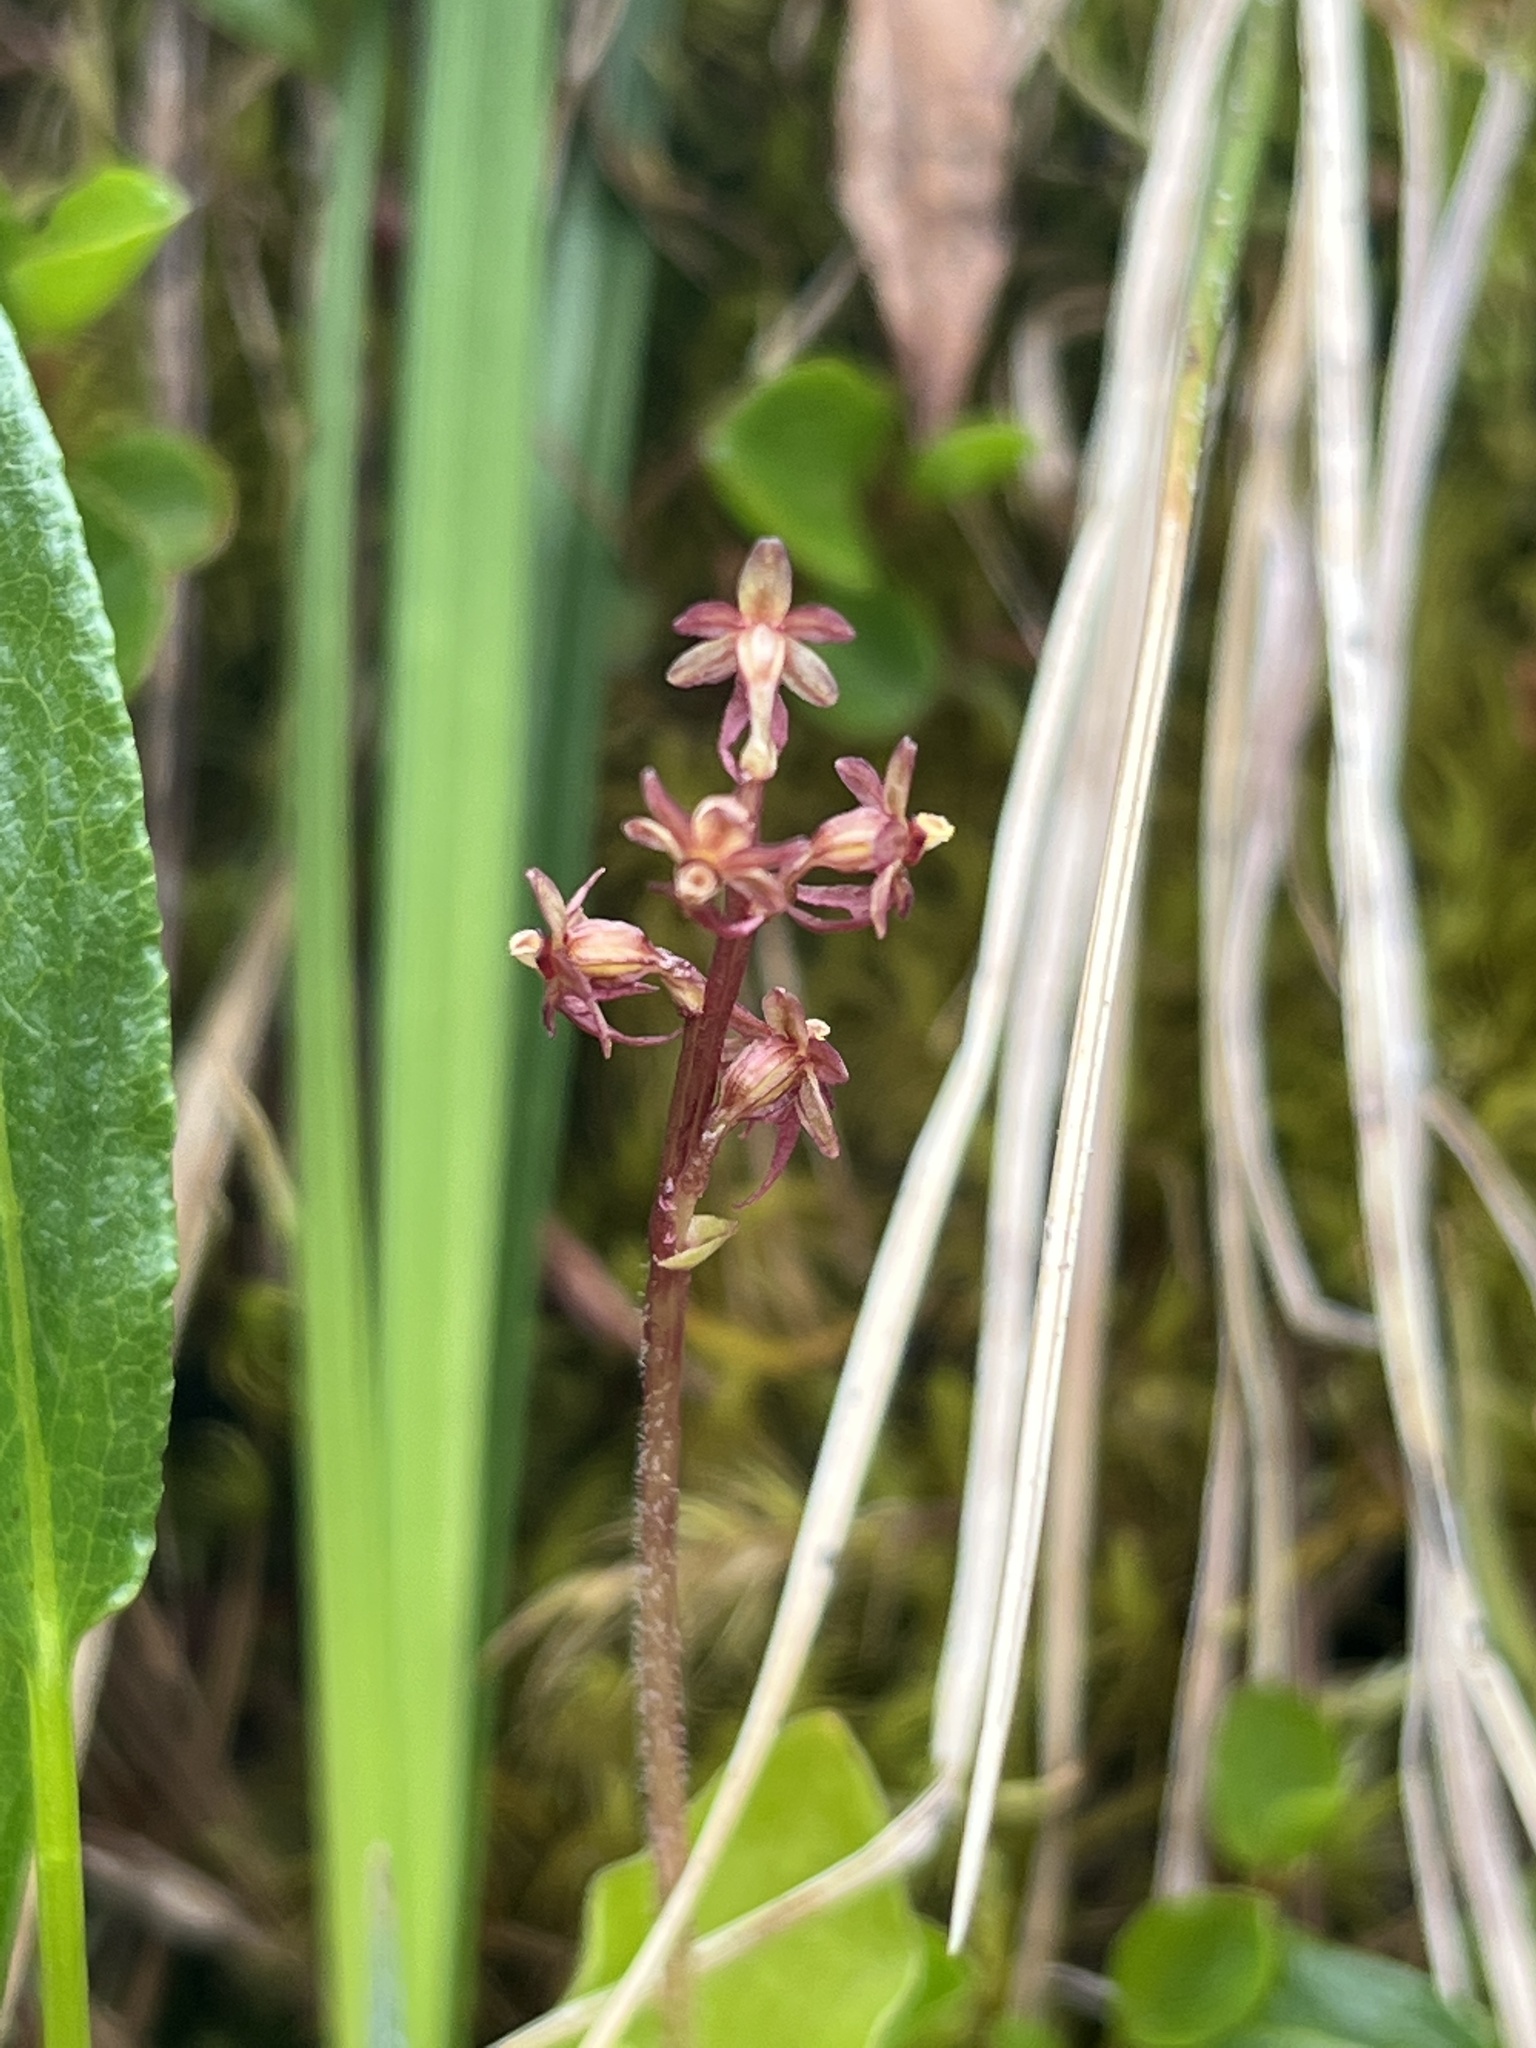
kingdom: Plantae
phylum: Tracheophyta
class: Liliopsida
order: Asparagales
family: Orchidaceae
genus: Neottia
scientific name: Neottia cordata
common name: Lesser twayblade
